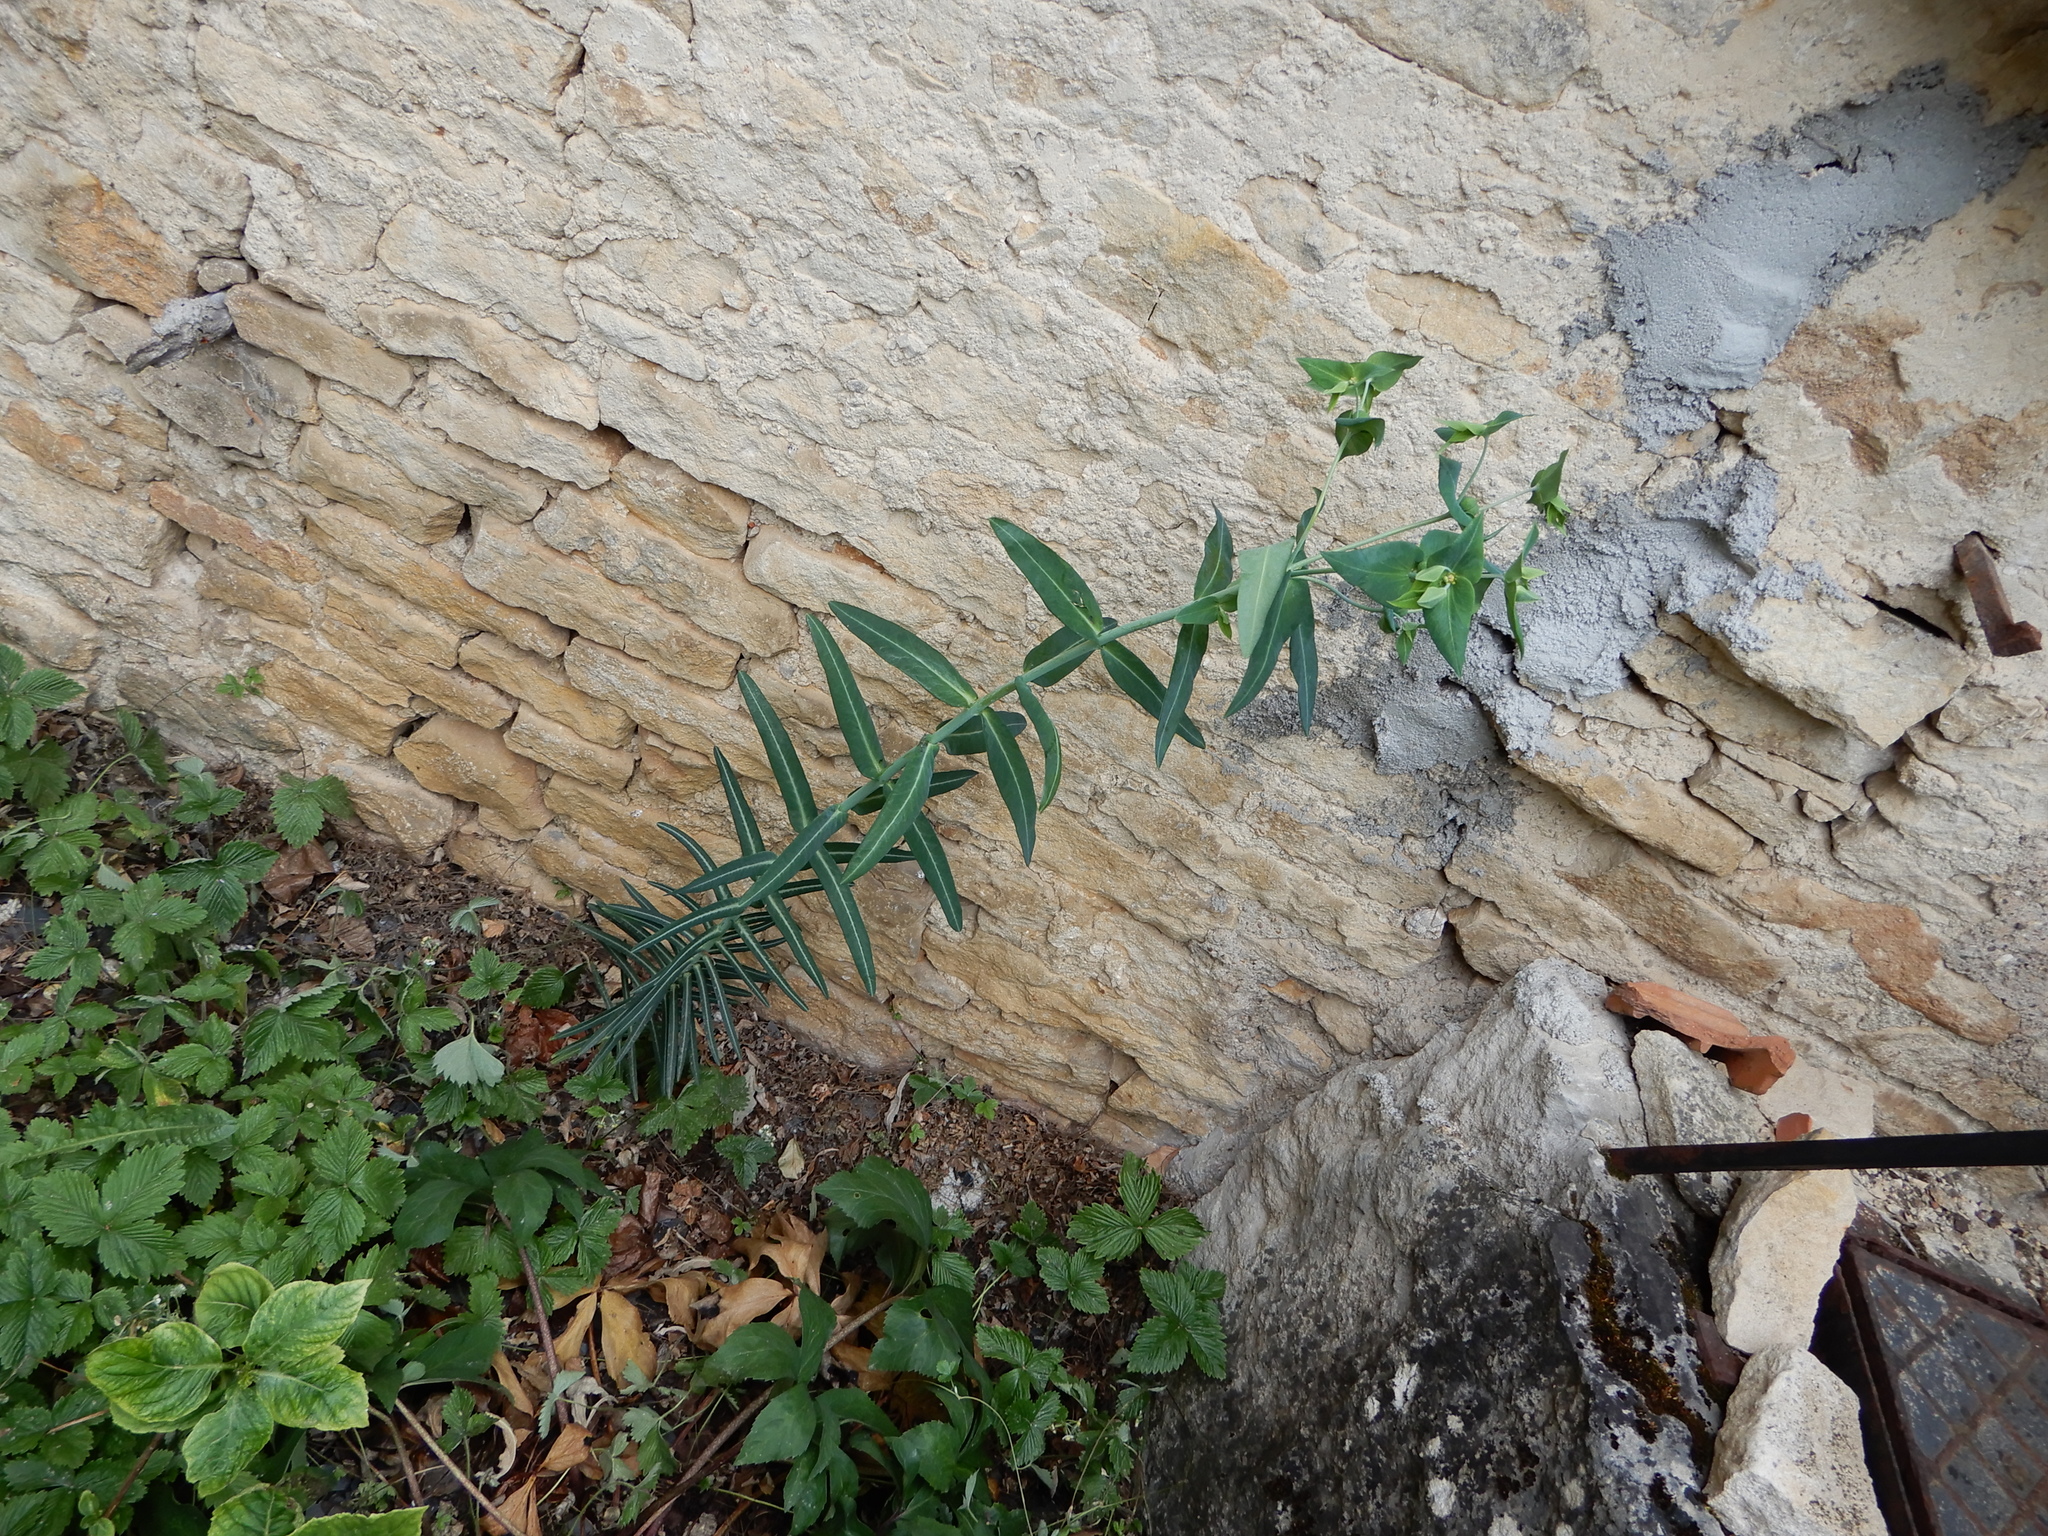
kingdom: Plantae
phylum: Tracheophyta
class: Magnoliopsida
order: Malpighiales
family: Euphorbiaceae
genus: Euphorbia
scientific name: Euphorbia lathyris
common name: Caper spurge
